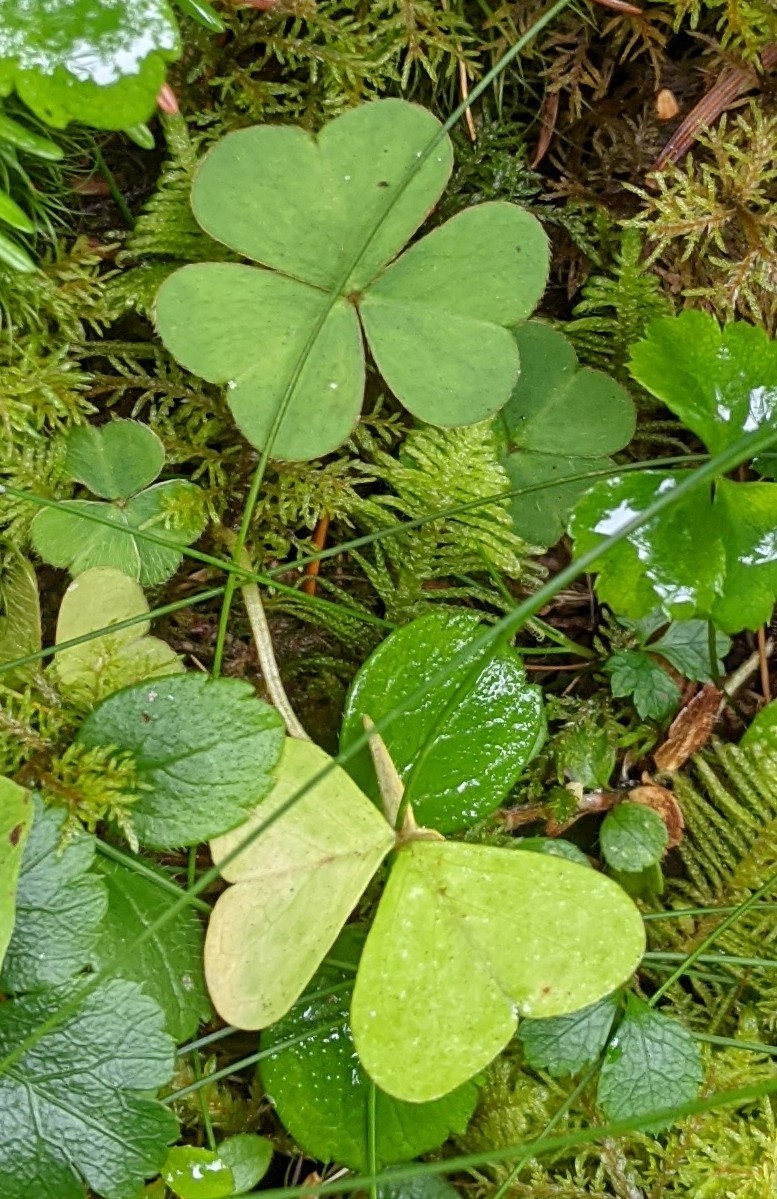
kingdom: Plantae
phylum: Tracheophyta
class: Magnoliopsida
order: Oxalidales
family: Oxalidaceae
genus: Oxalis
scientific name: Oxalis montana
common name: American wood-sorrel
